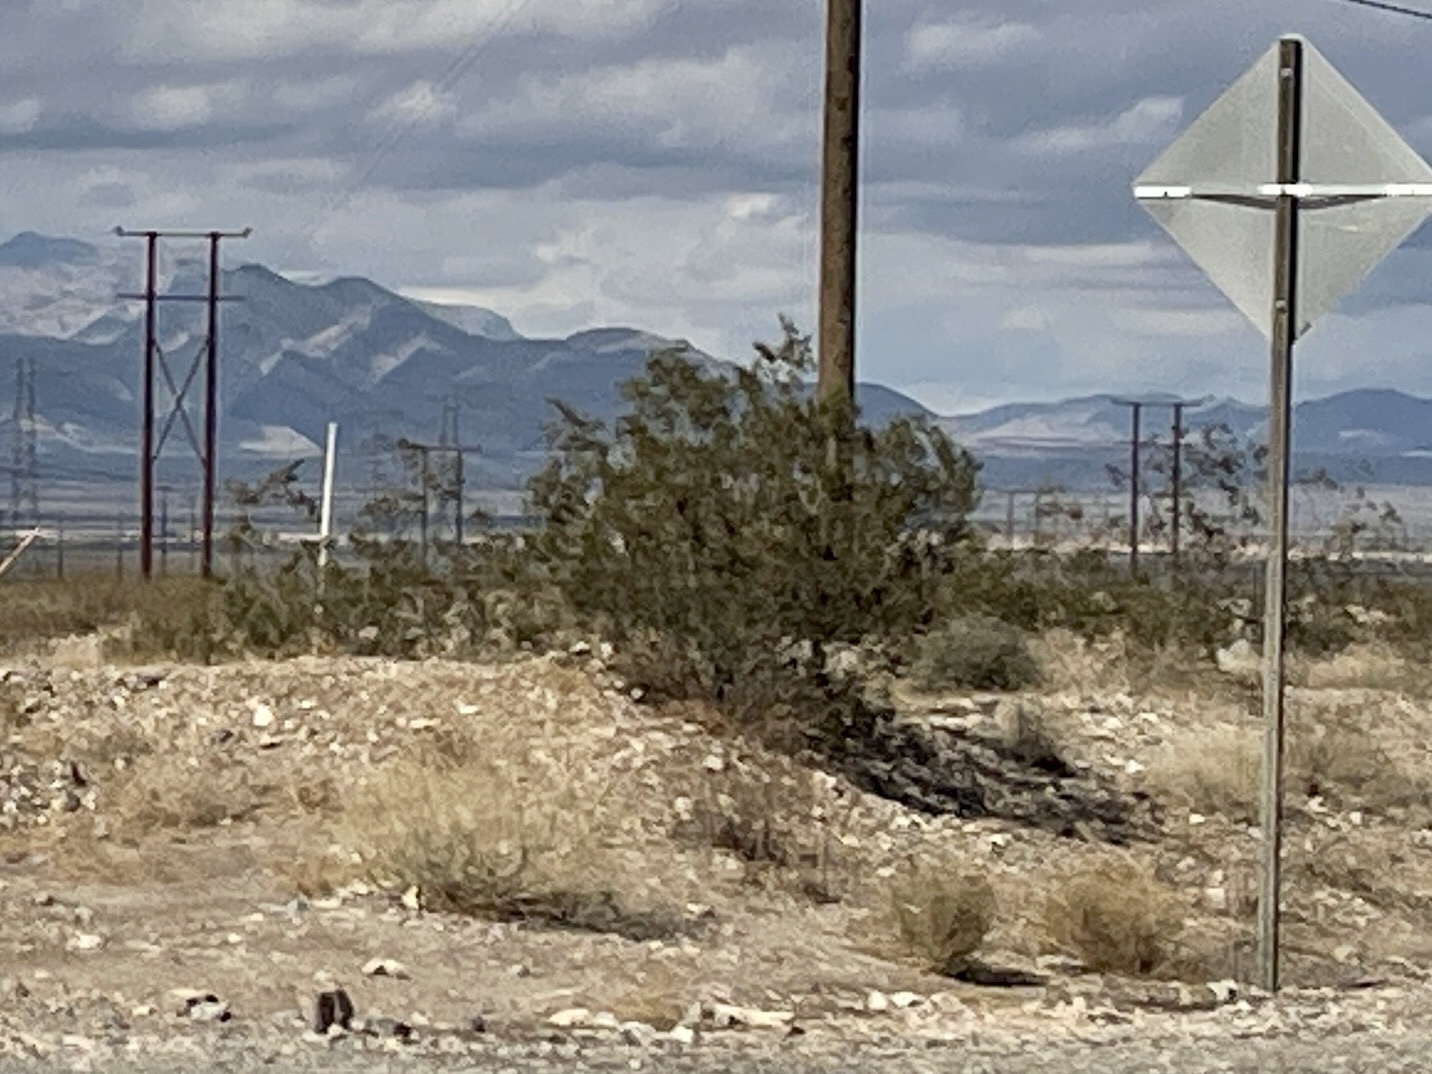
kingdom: Plantae
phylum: Tracheophyta
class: Magnoliopsida
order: Zygophyllales
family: Zygophyllaceae
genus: Larrea
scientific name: Larrea tridentata
